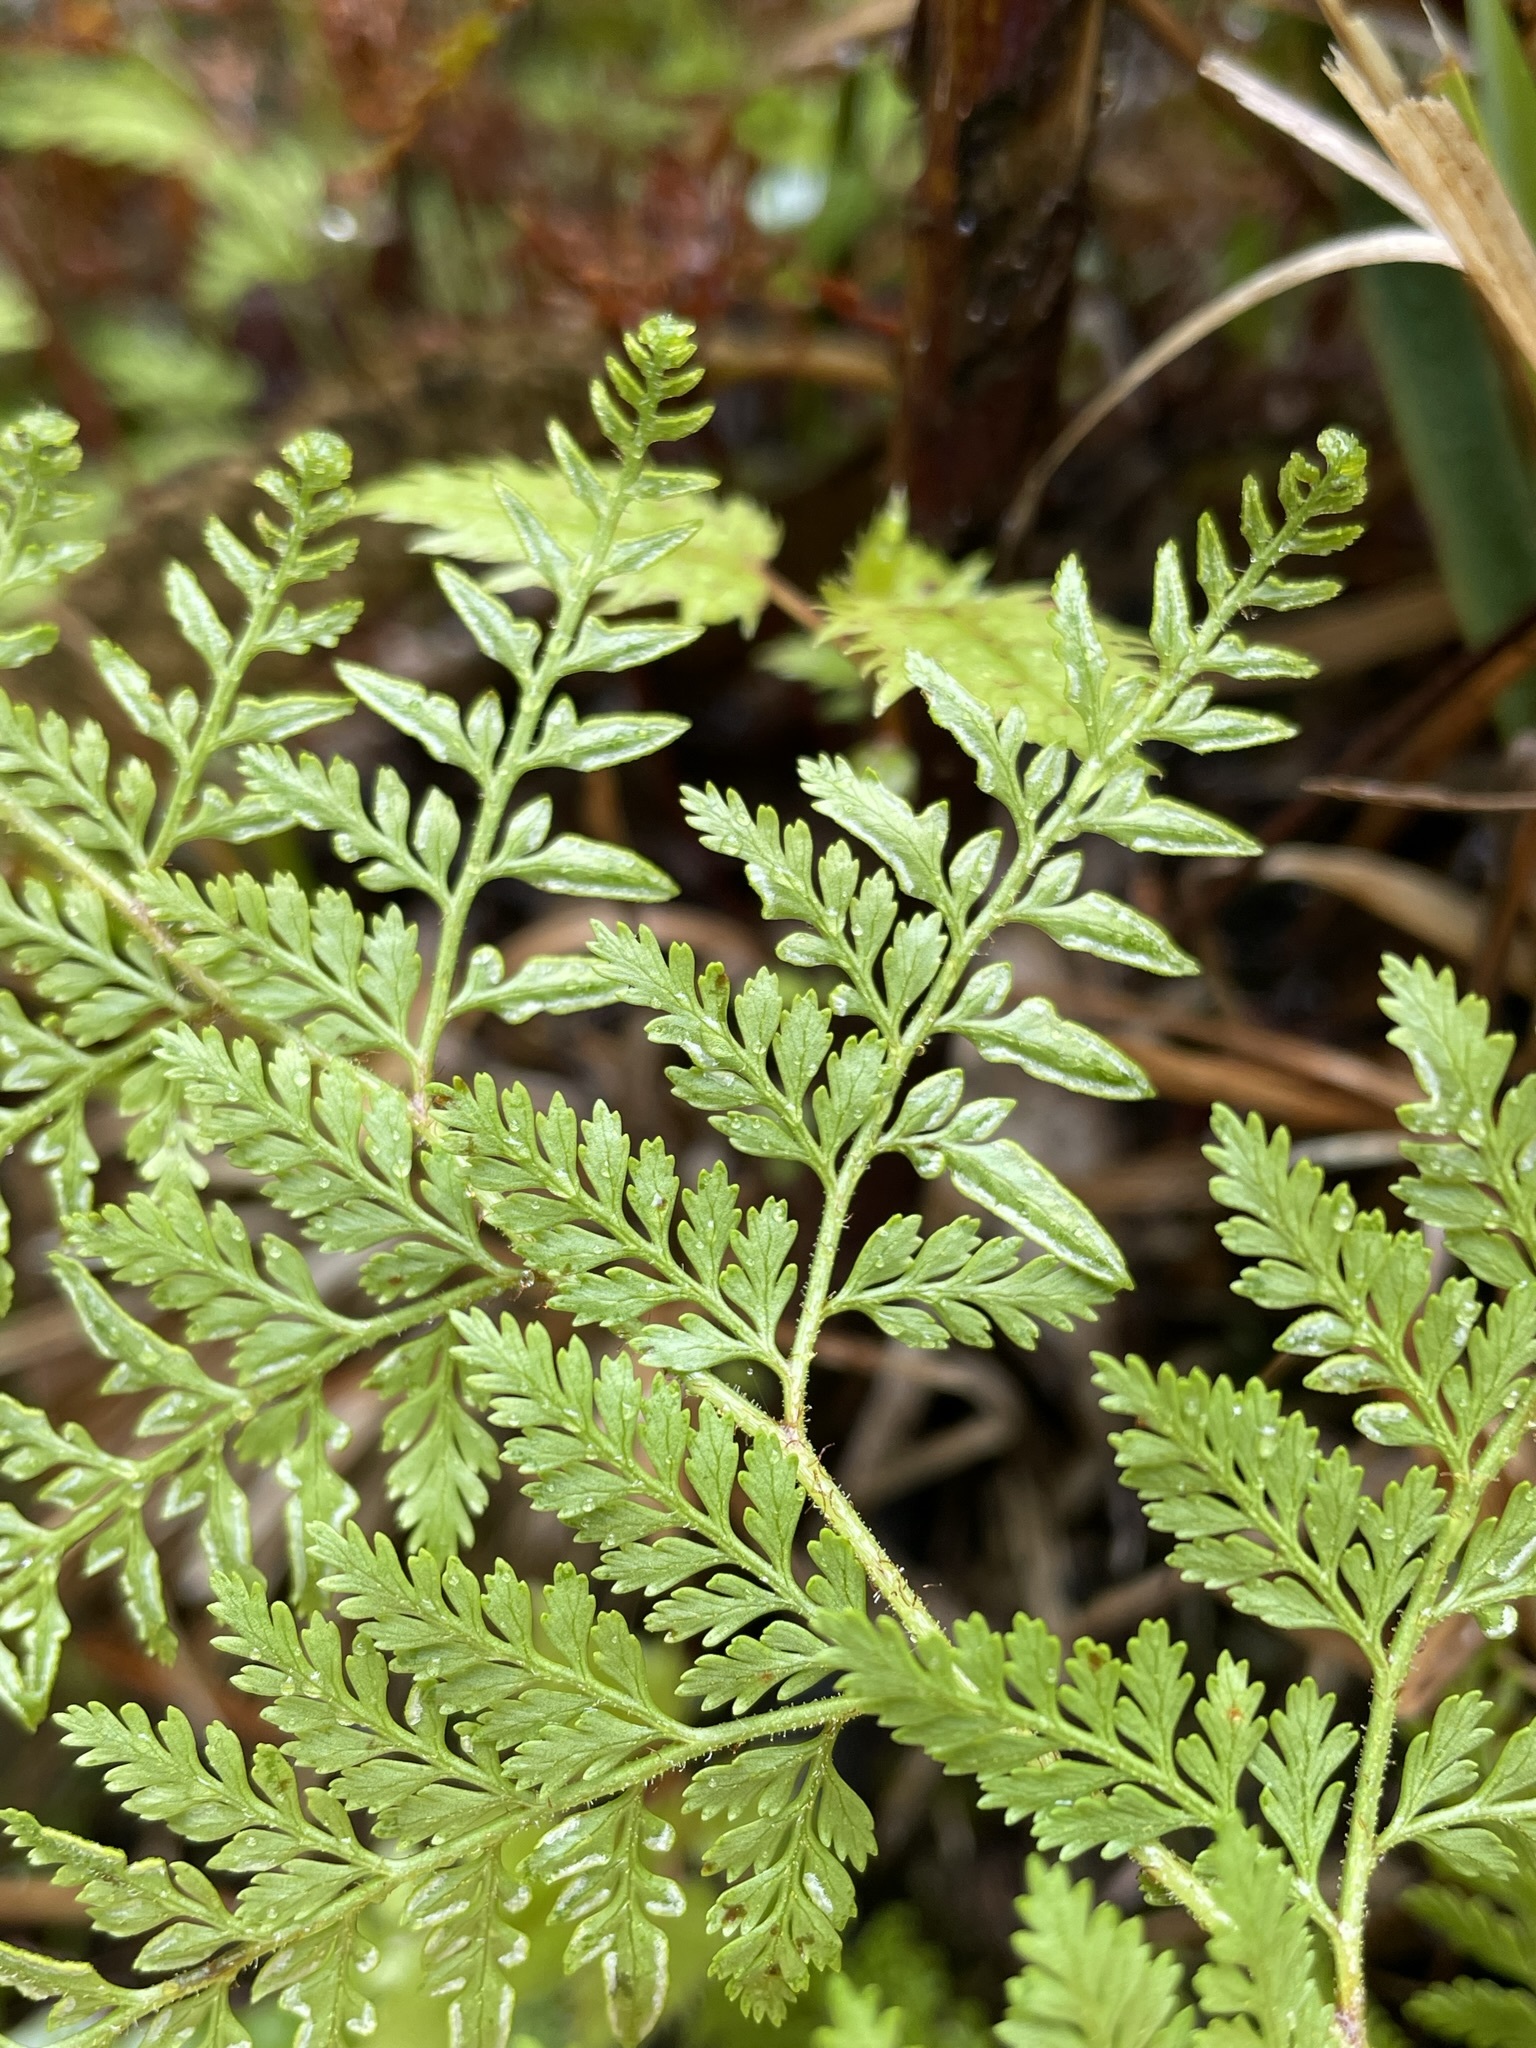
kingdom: Plantae
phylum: Tracheophyta
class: Polypodiopsida
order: Polypodiales
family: Dennstaedtiaceae
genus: Paesia
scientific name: Paesia scaberula
